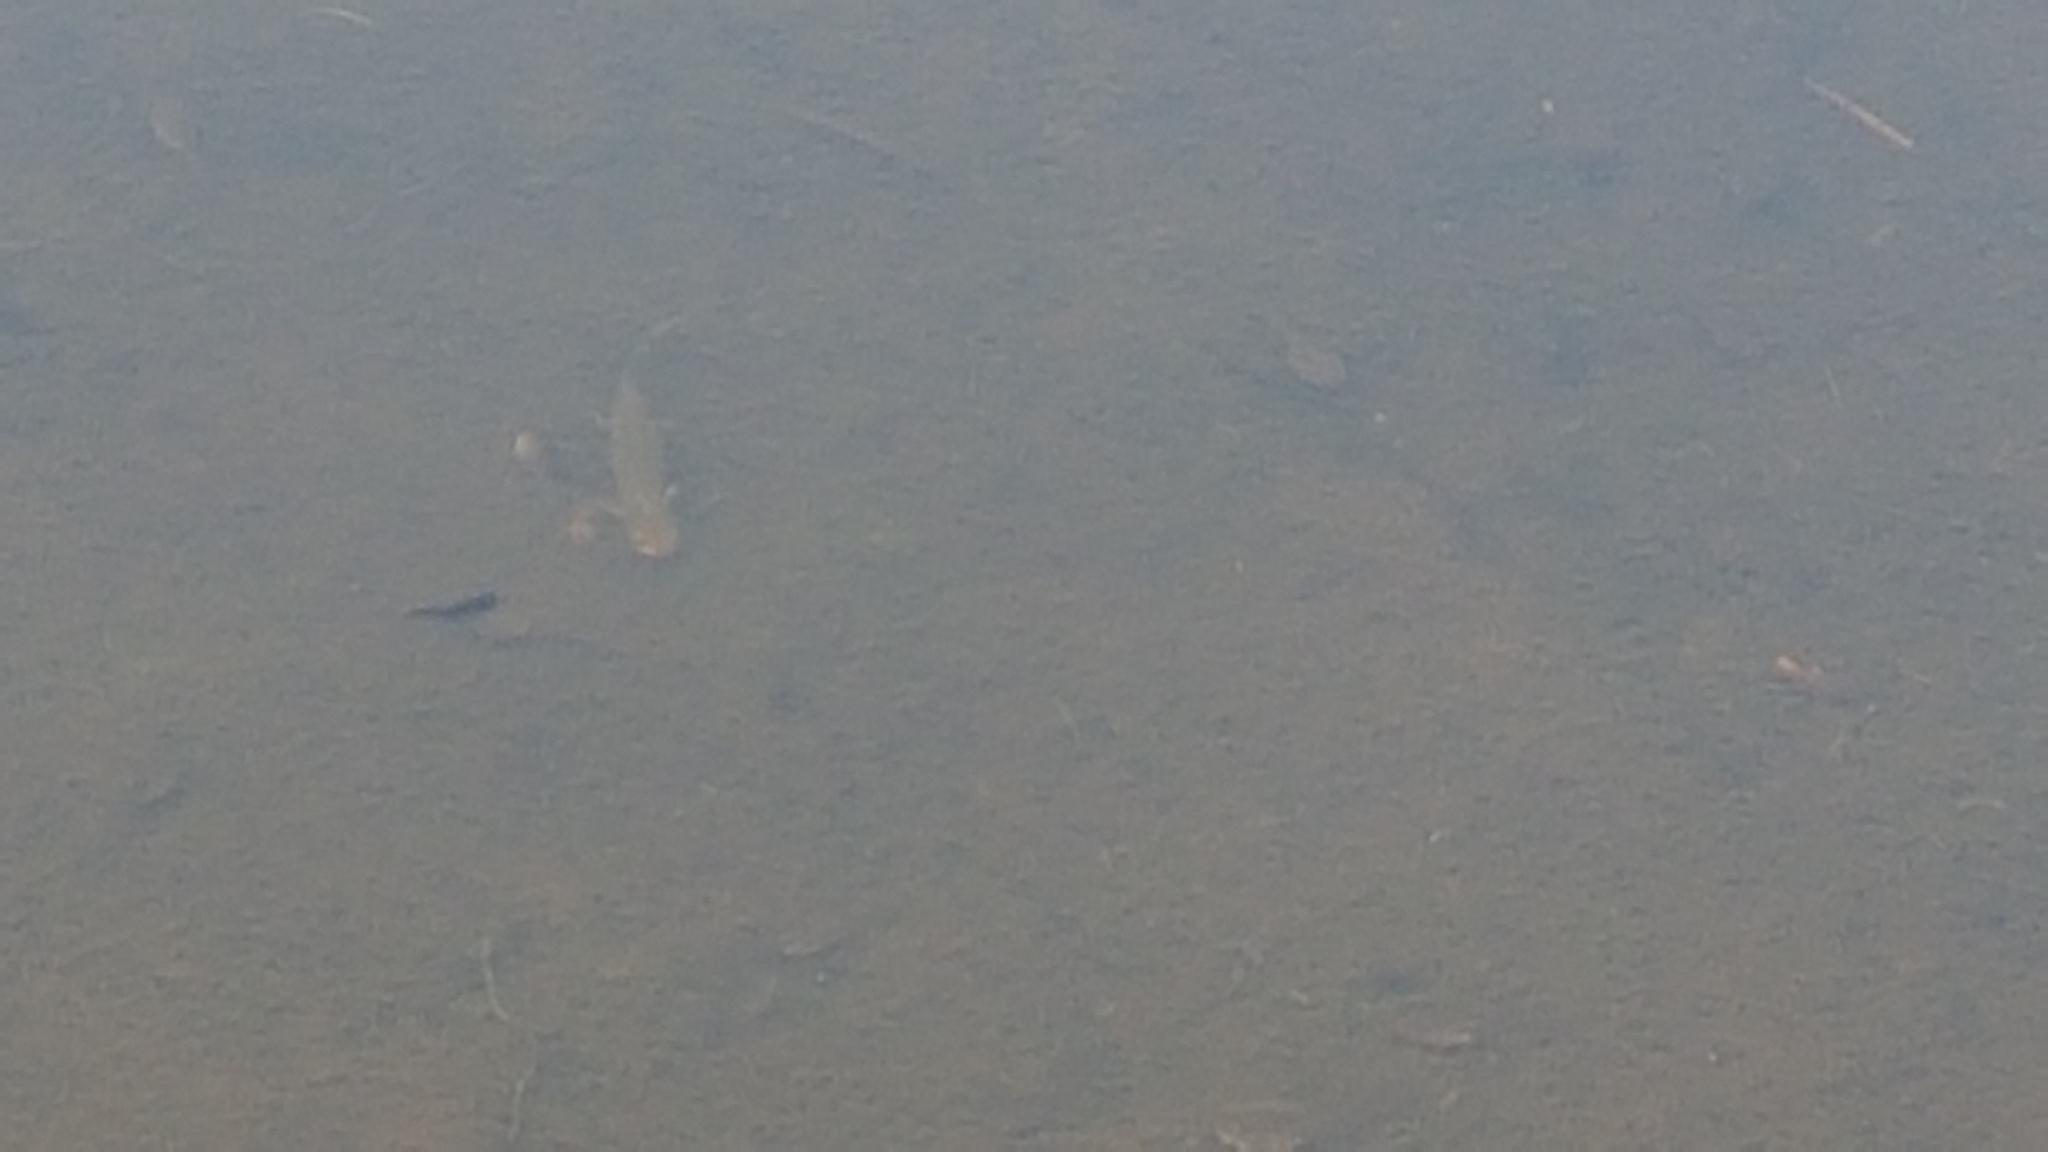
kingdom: Animalia
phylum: Chordata
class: Amphibia
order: Caudata
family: Salamandridae
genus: Ichthyosaura
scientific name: Ichthyosaura alpestris
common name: Alpine newt
